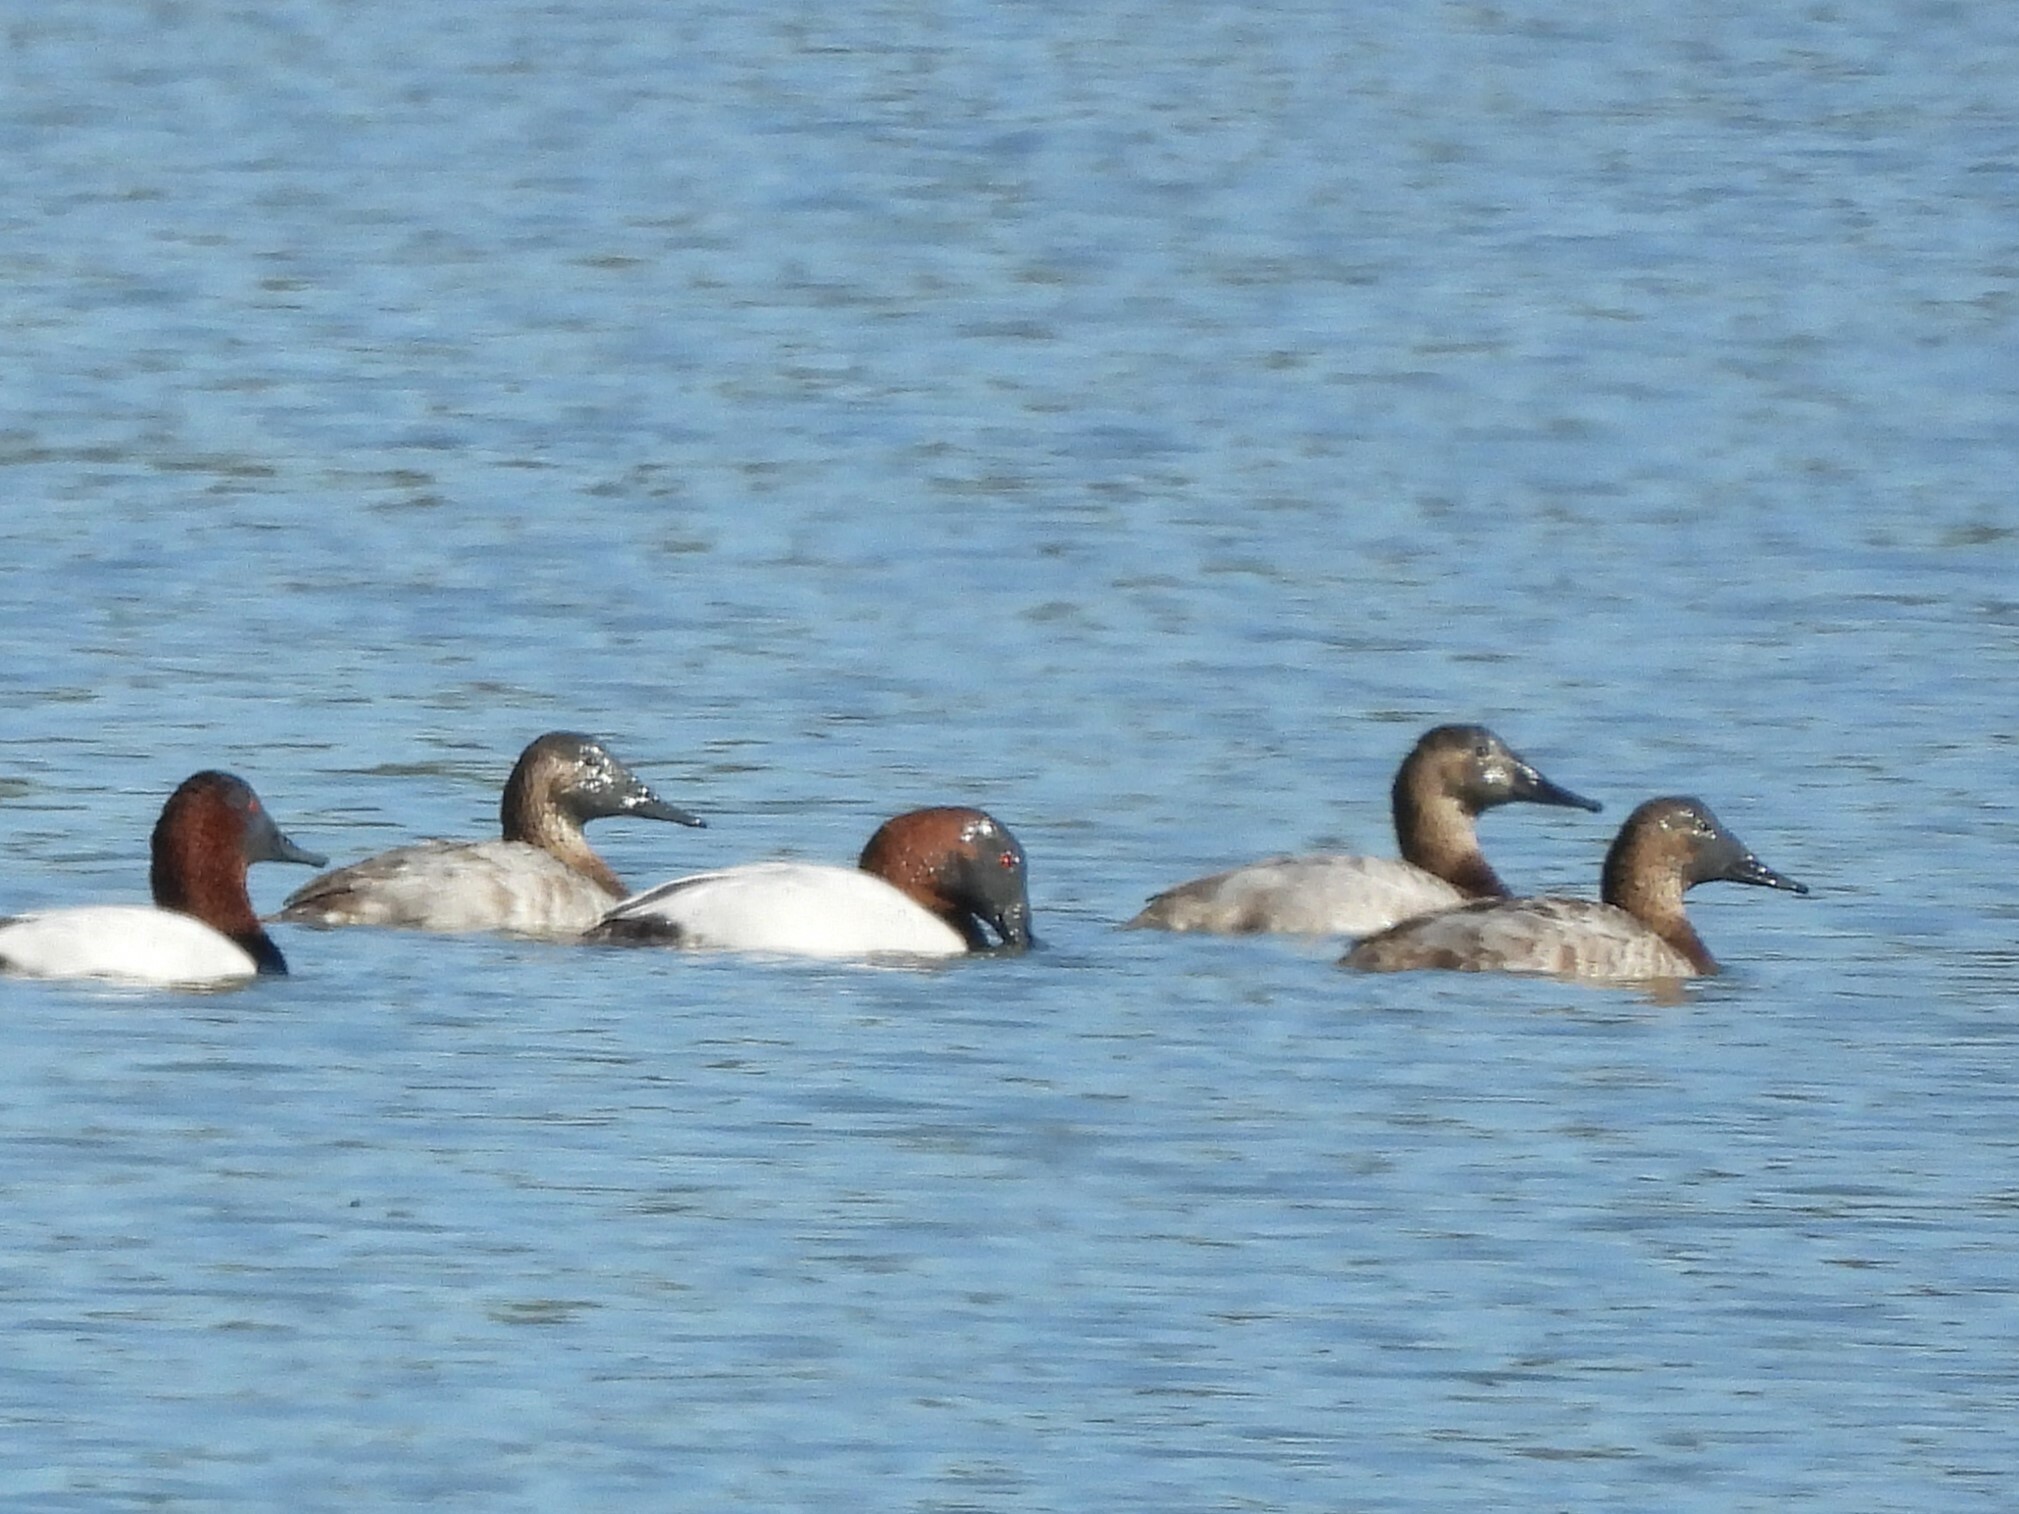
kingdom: Animalia
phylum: Chordata
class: Aves
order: Anseriformes
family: Anatidae
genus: Aythya
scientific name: Aythya valisineria
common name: Canvasback
